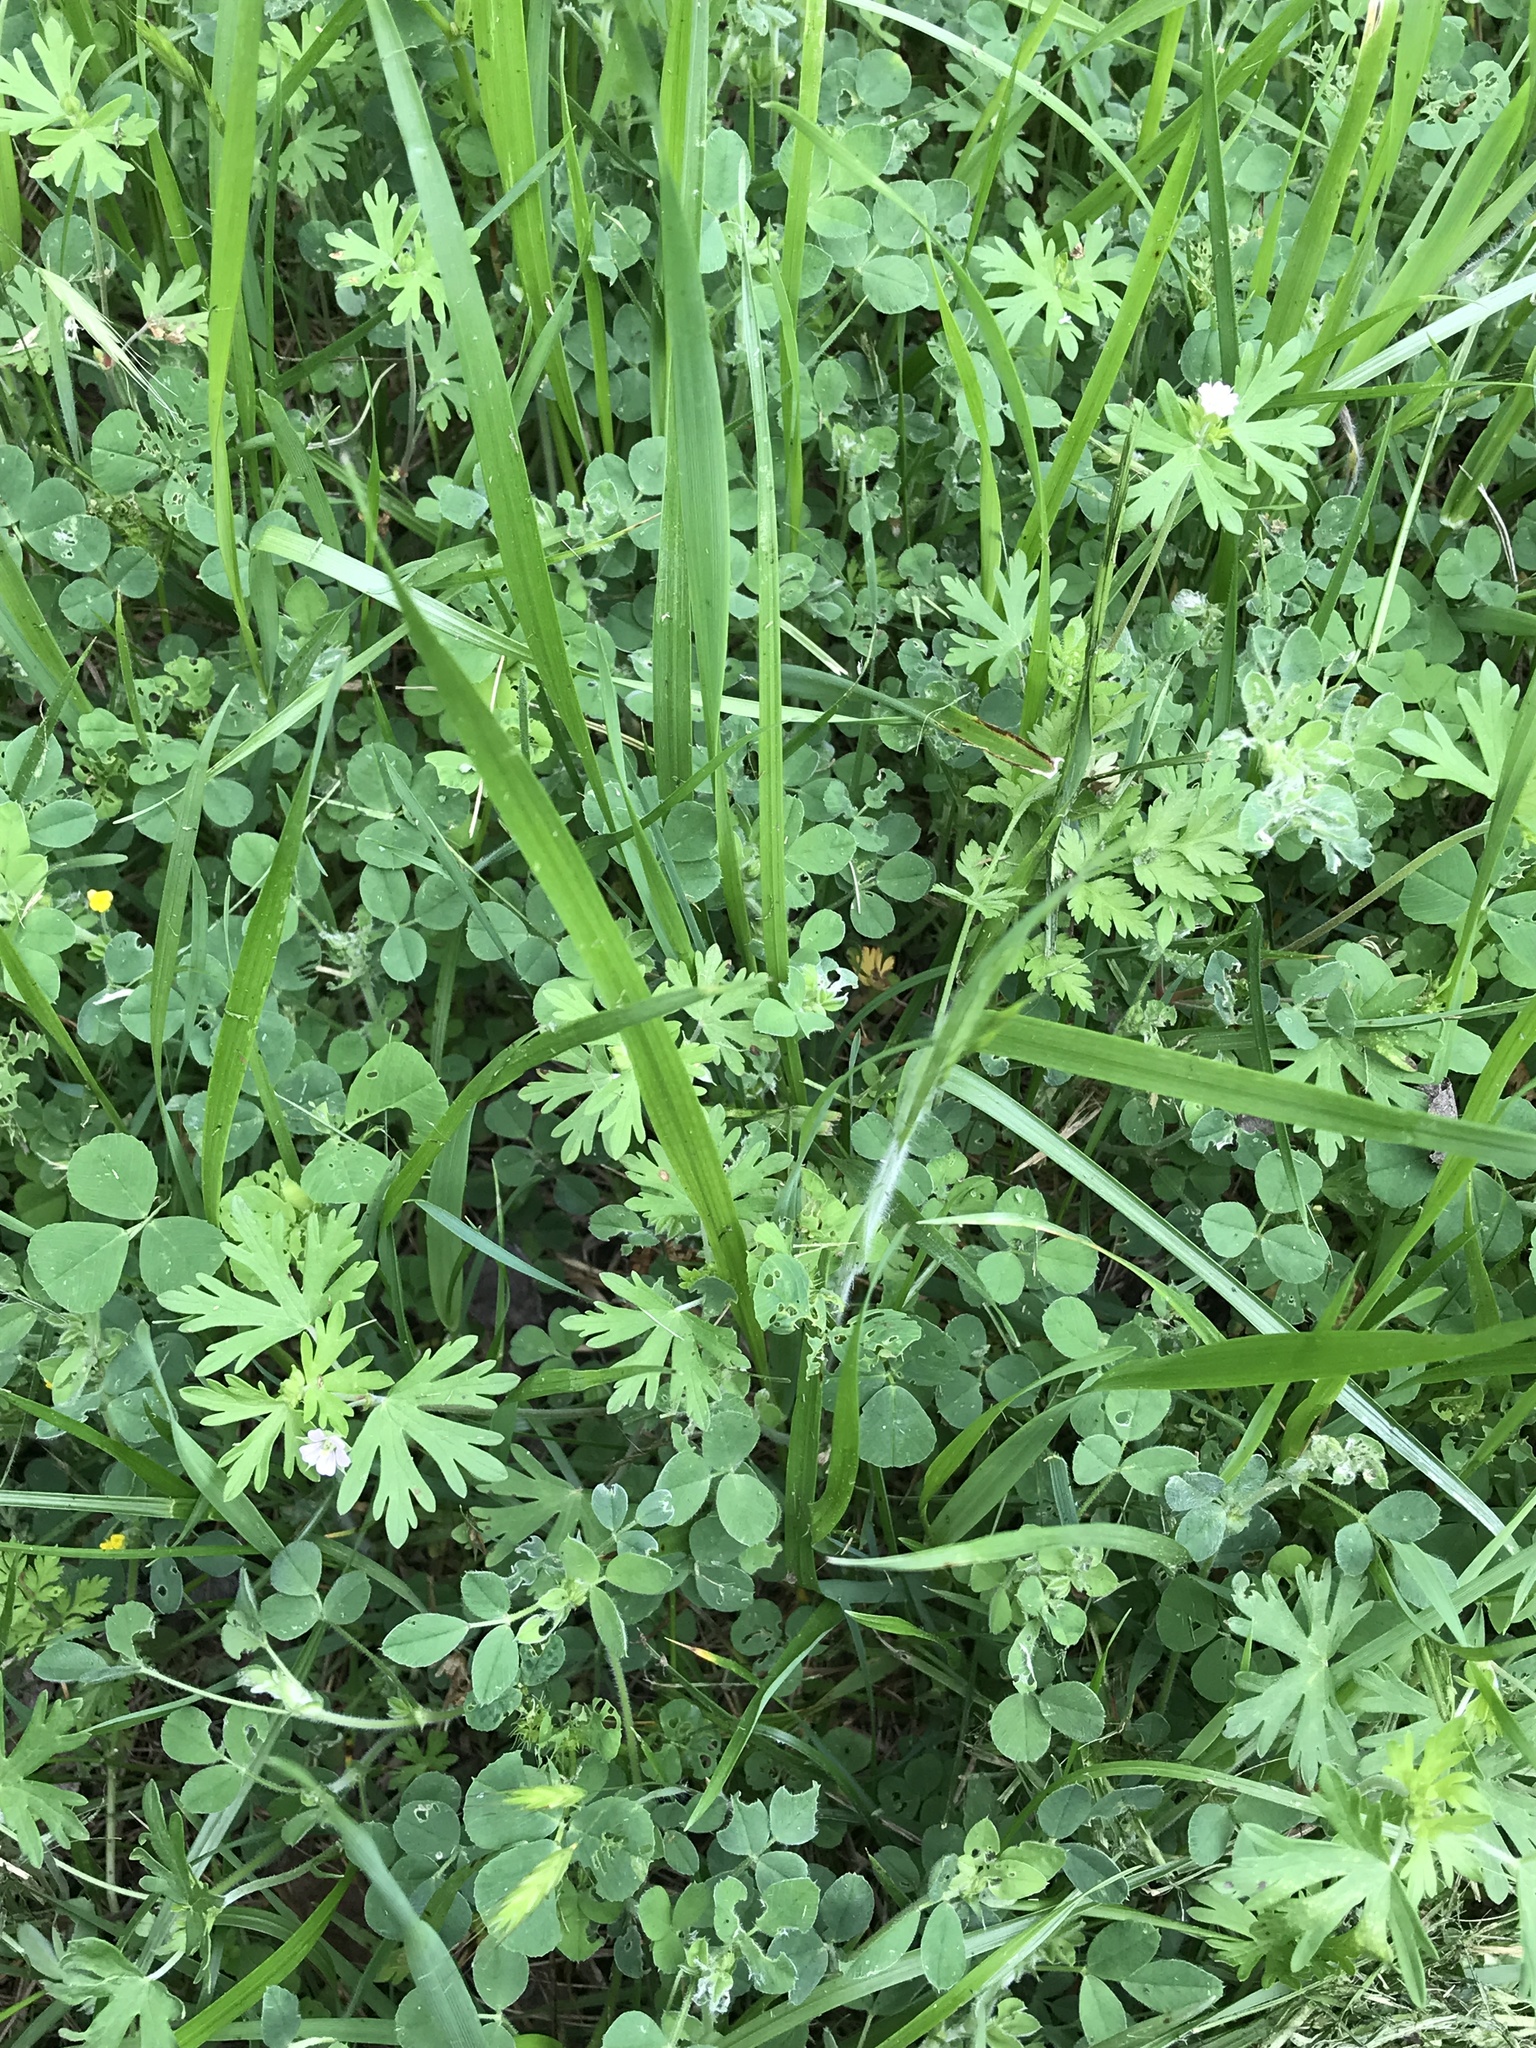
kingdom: Plantae
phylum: Tracheophyta
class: Magnoliopsida
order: Geraniales
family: Geraniaceae
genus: Geranium
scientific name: Geranium carolinianum
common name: Carolina crane's-bill
